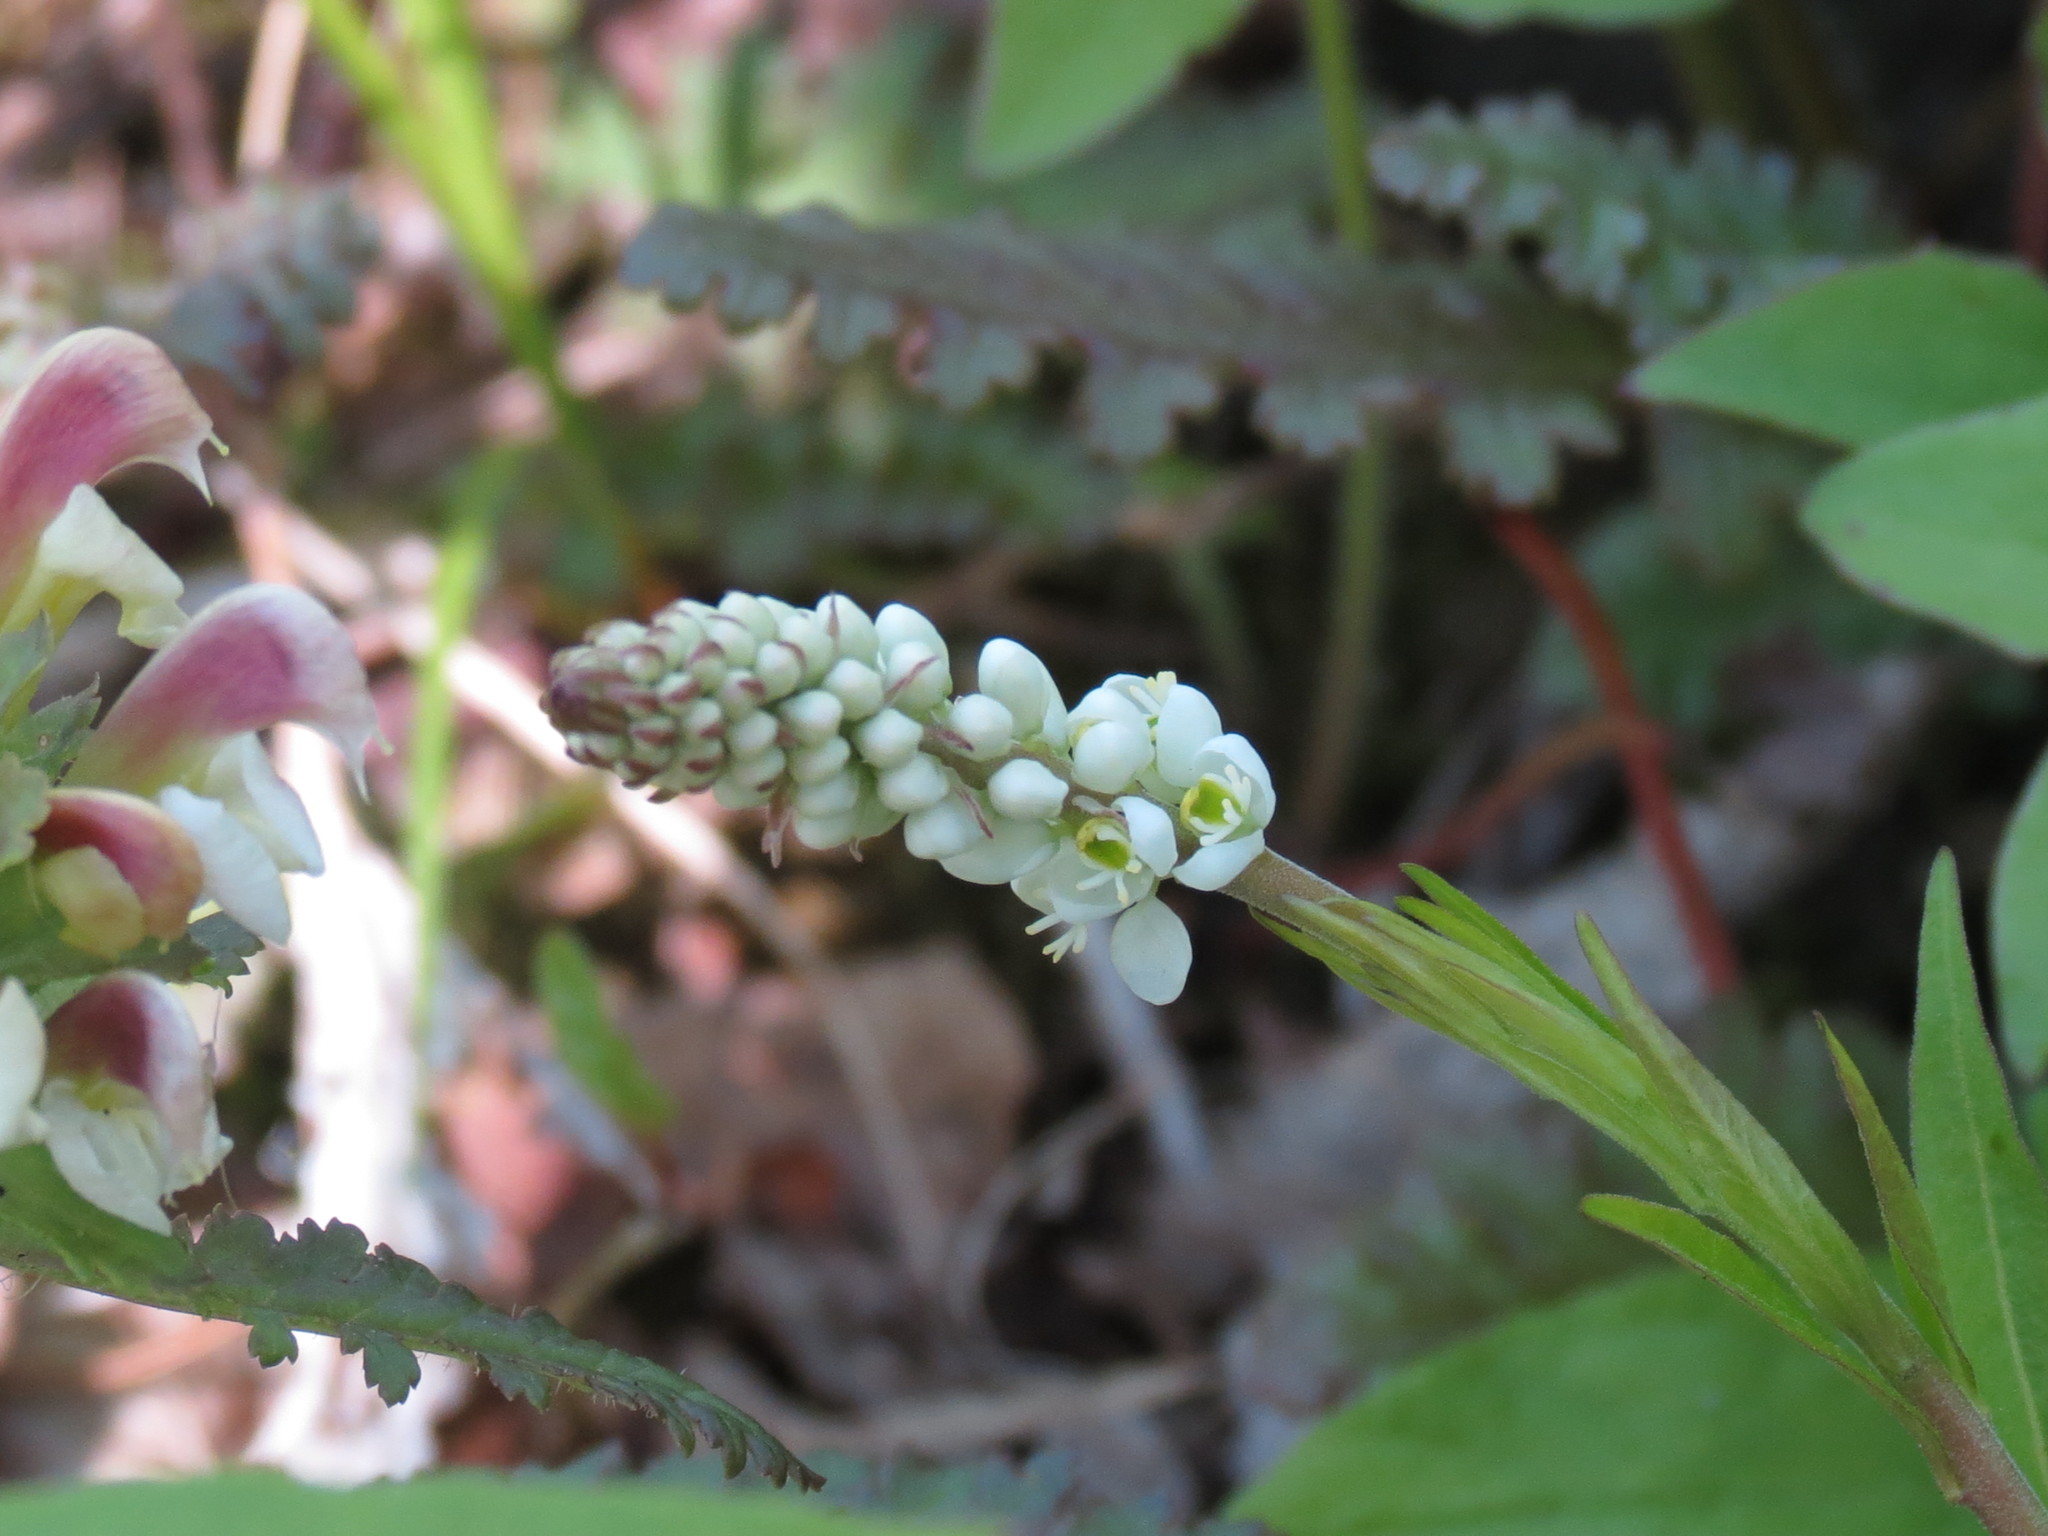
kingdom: Plantae
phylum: Tracheophyta
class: Magnoliopsida
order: Fabales
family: Polygalaceae
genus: Polygala
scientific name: Polygala senega
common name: Seneca snakeroot
